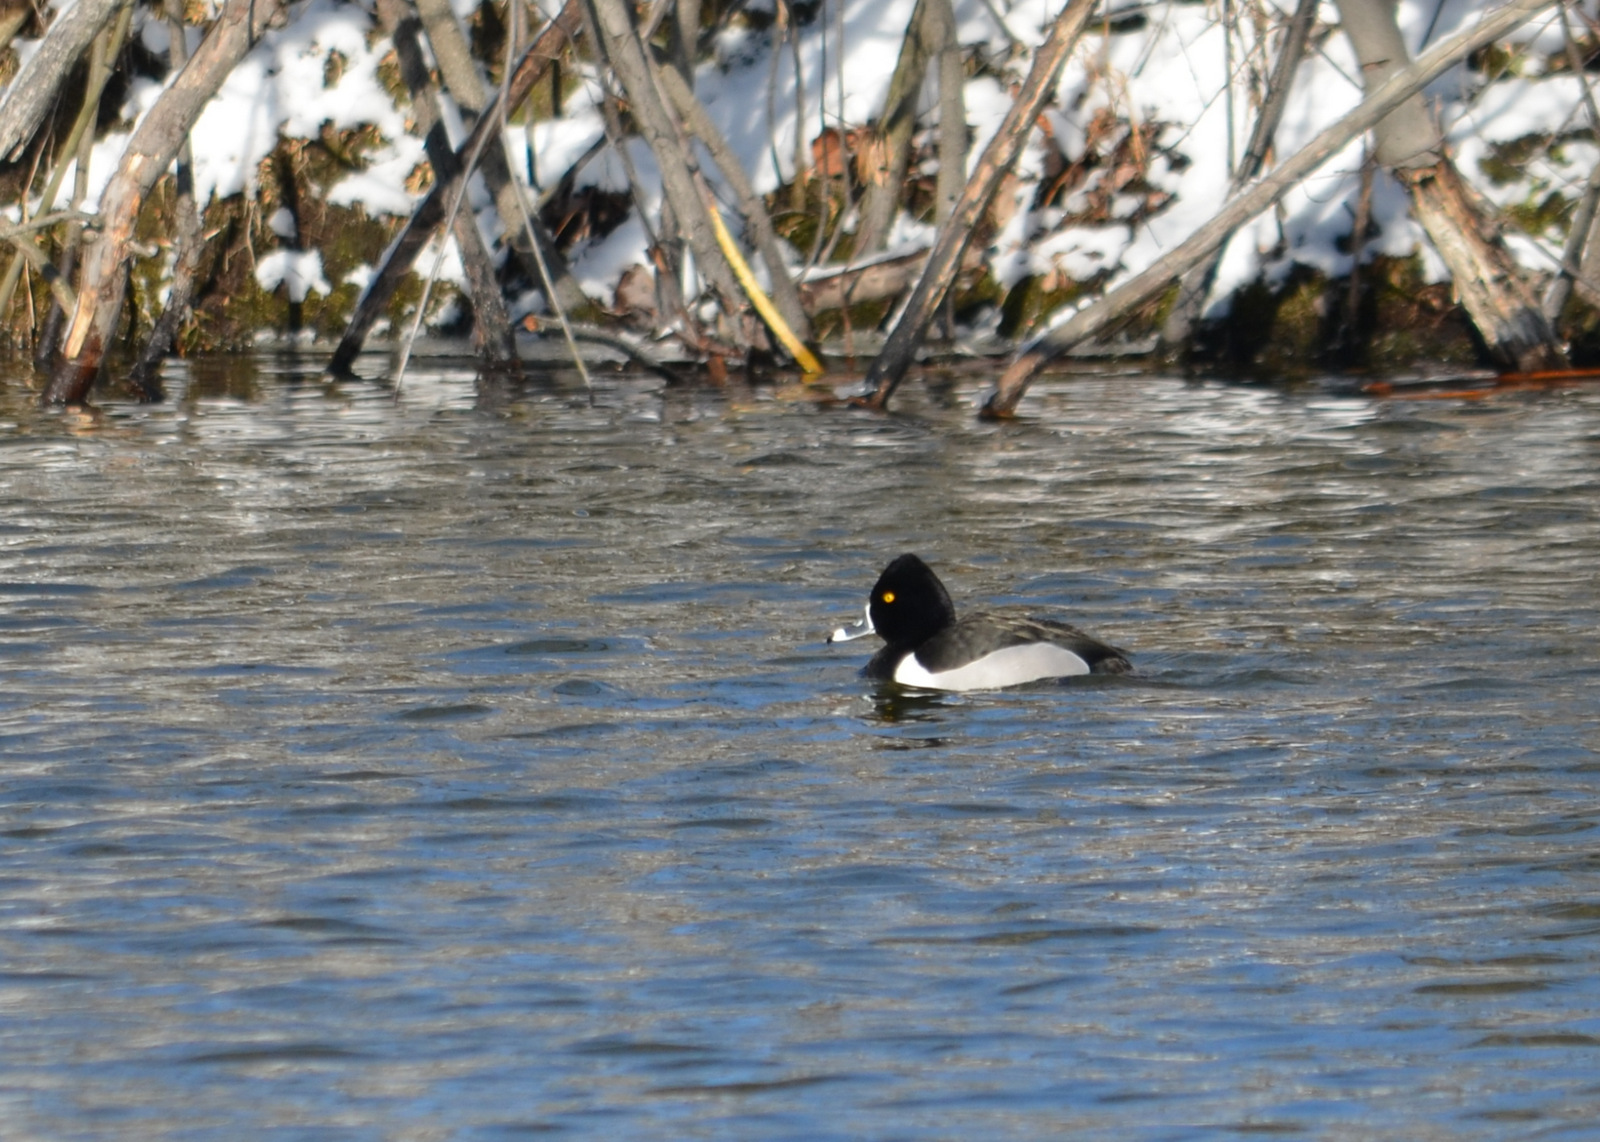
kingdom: Animalia
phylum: Chordata
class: Aves
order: Anseriformes
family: Anatidae
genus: Aythya
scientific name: Aythya collaris
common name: Ring-necked duck
